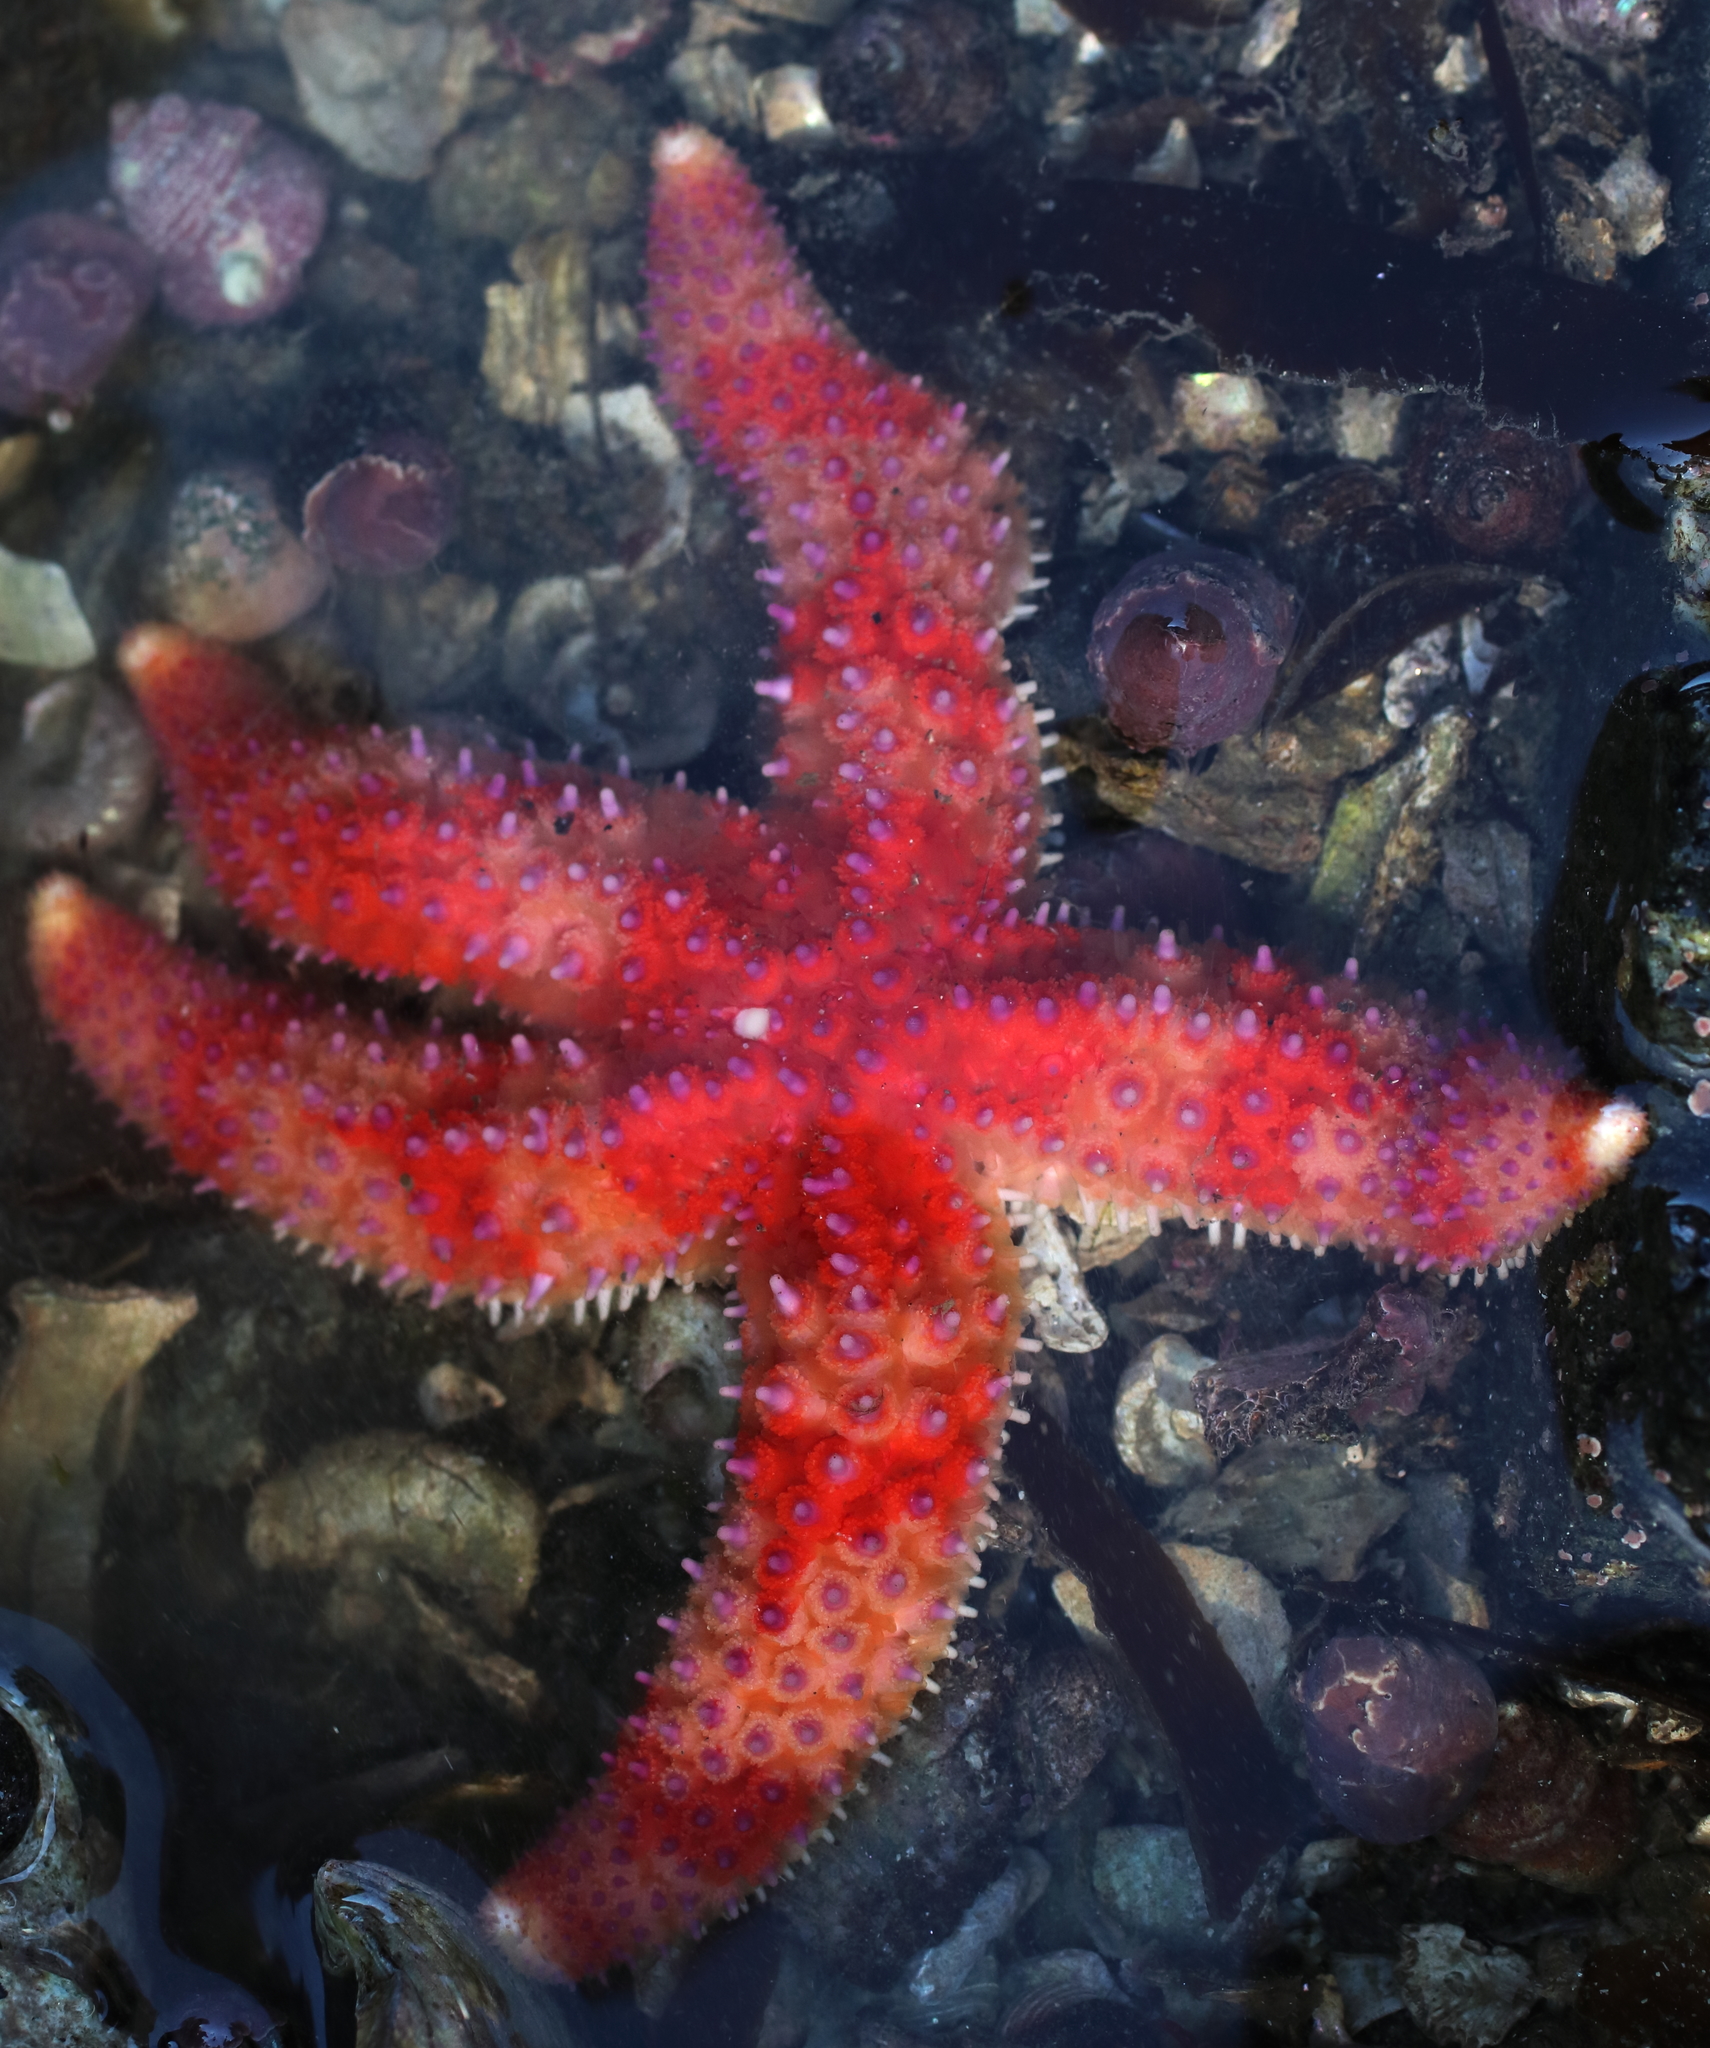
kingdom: Animalia
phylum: Echinodermata
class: Asteroidea
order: Forcipulatida
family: Asteriidae
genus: Orthasterias
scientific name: Orthasterias koehleri
